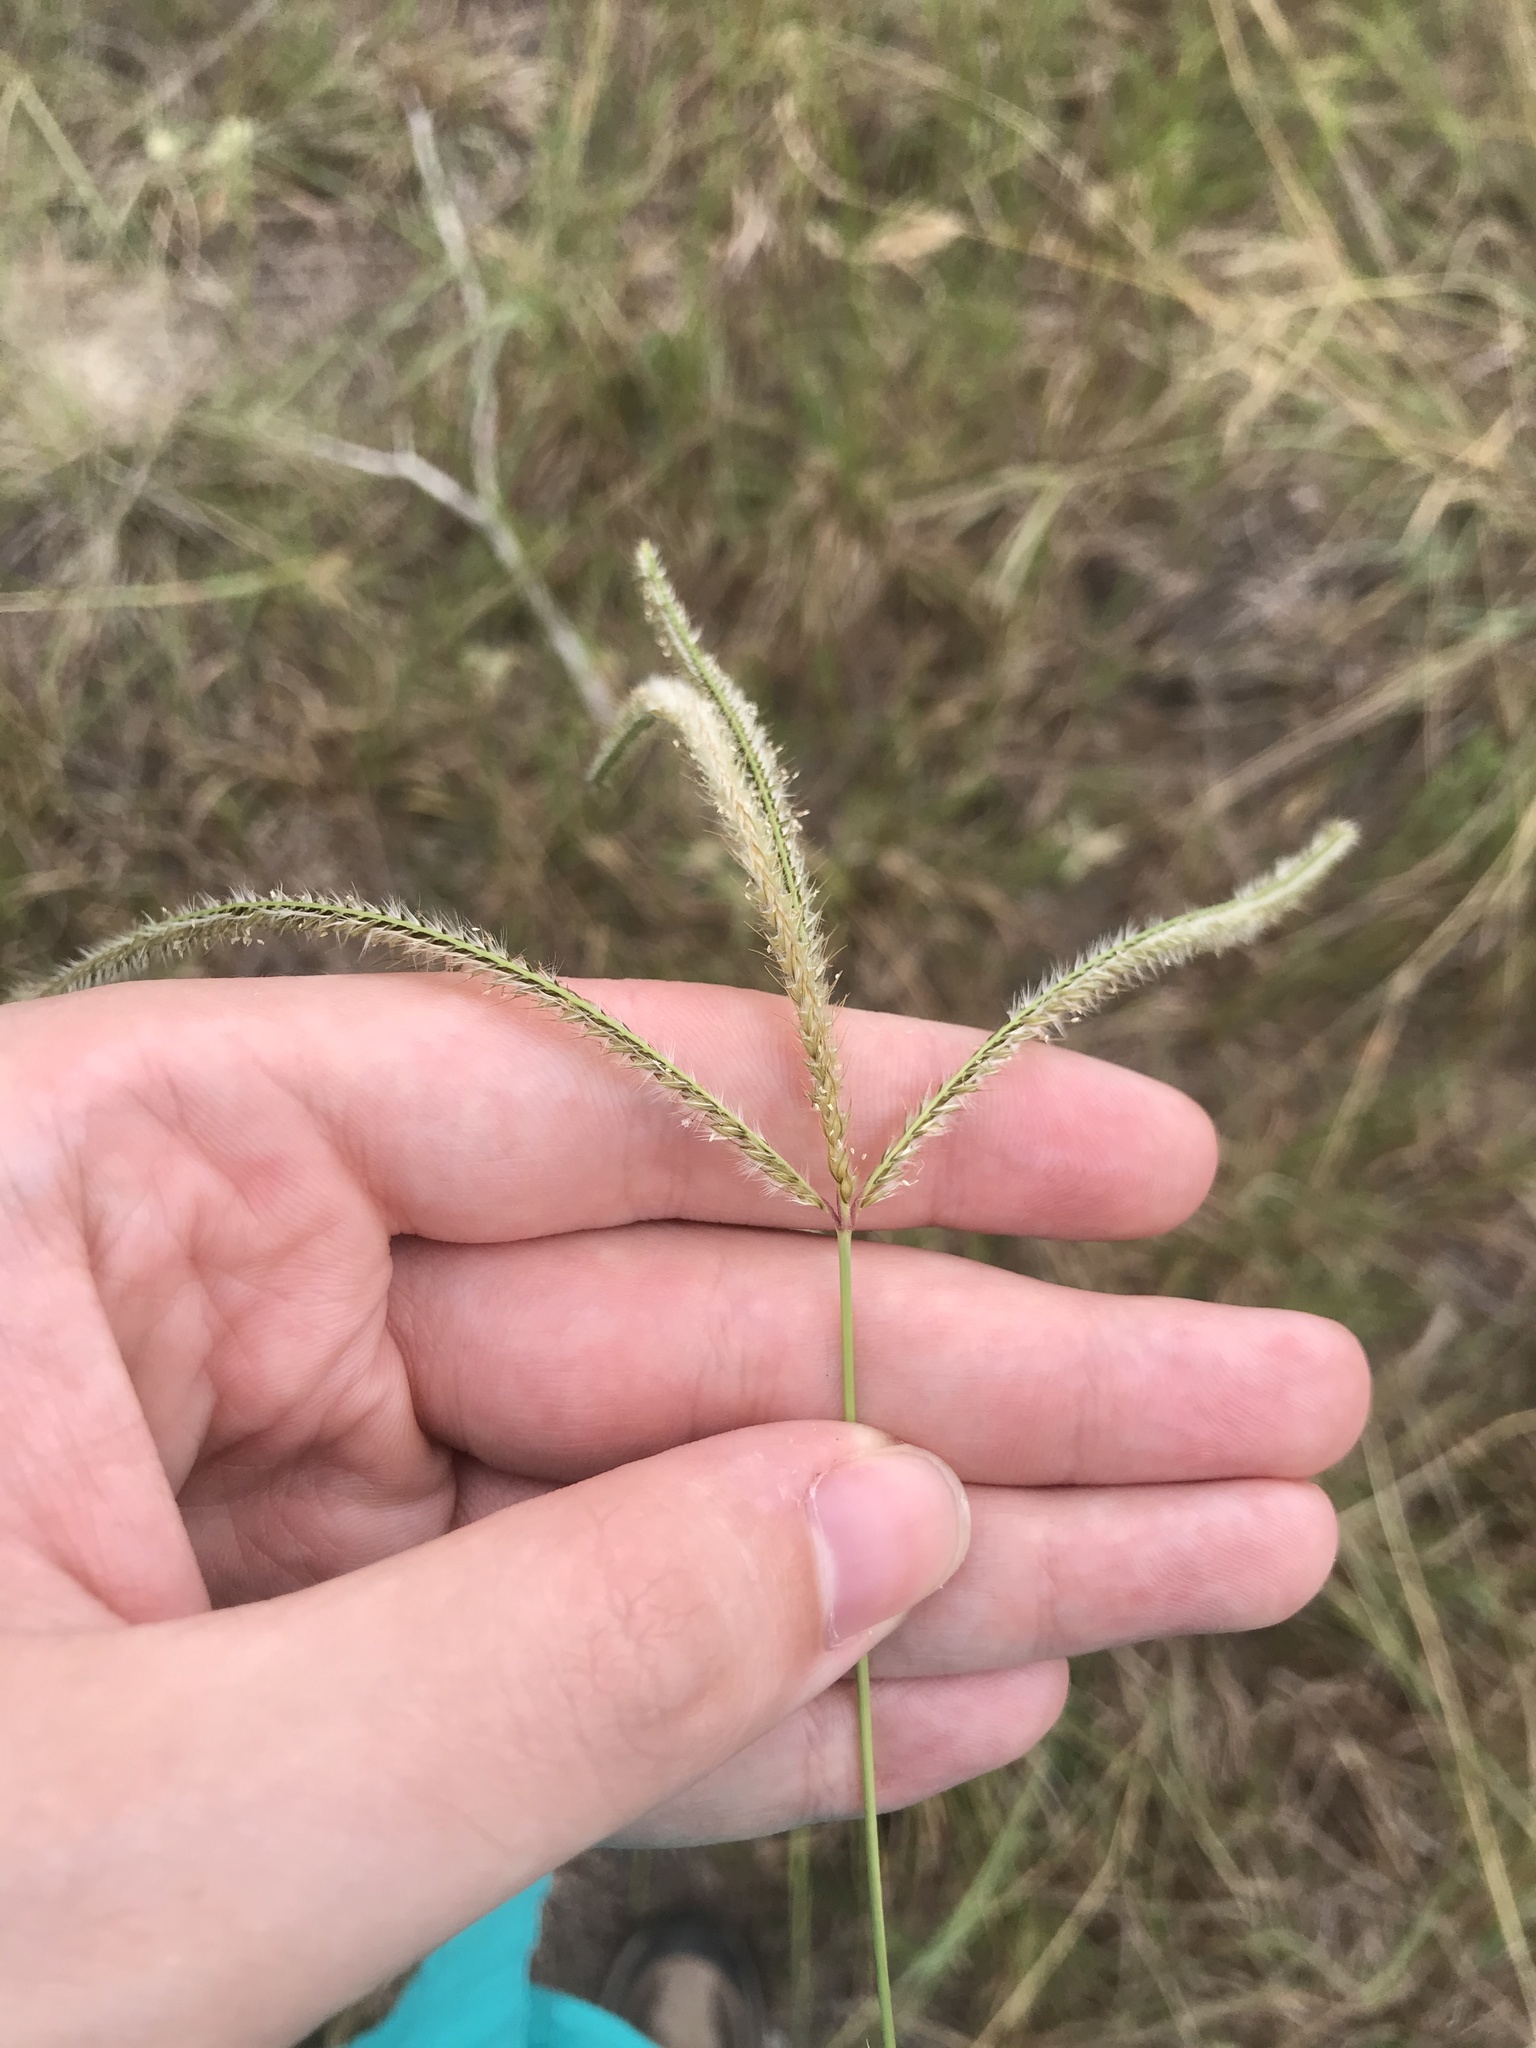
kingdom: Plantae
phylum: Tracheophyta
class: Liliopsida
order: Poales
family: Poaceae
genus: Stapfochloa
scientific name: Stapfochloa canterae
